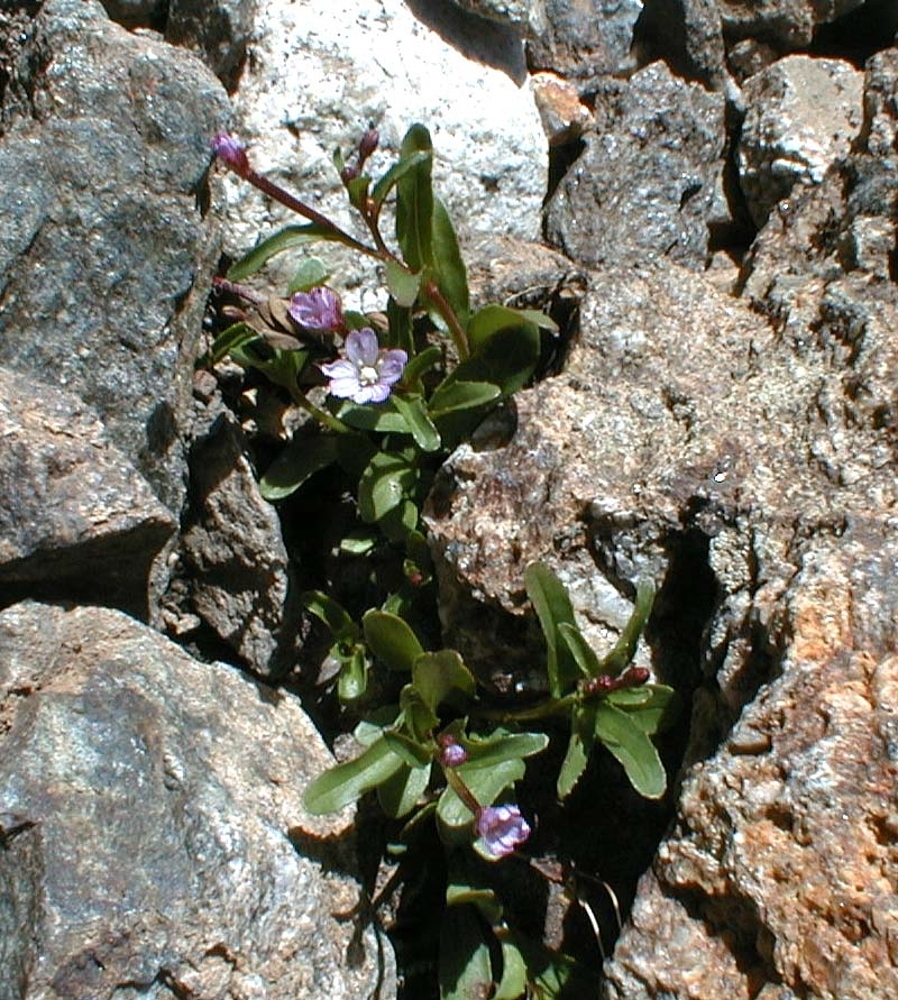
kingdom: Plantae
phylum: Tracheophyta
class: Magnoliopsida
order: Myrtales
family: Onagraceae
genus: Epilobium
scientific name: Epilobium anagallidifolium
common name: Alpine willowherb
